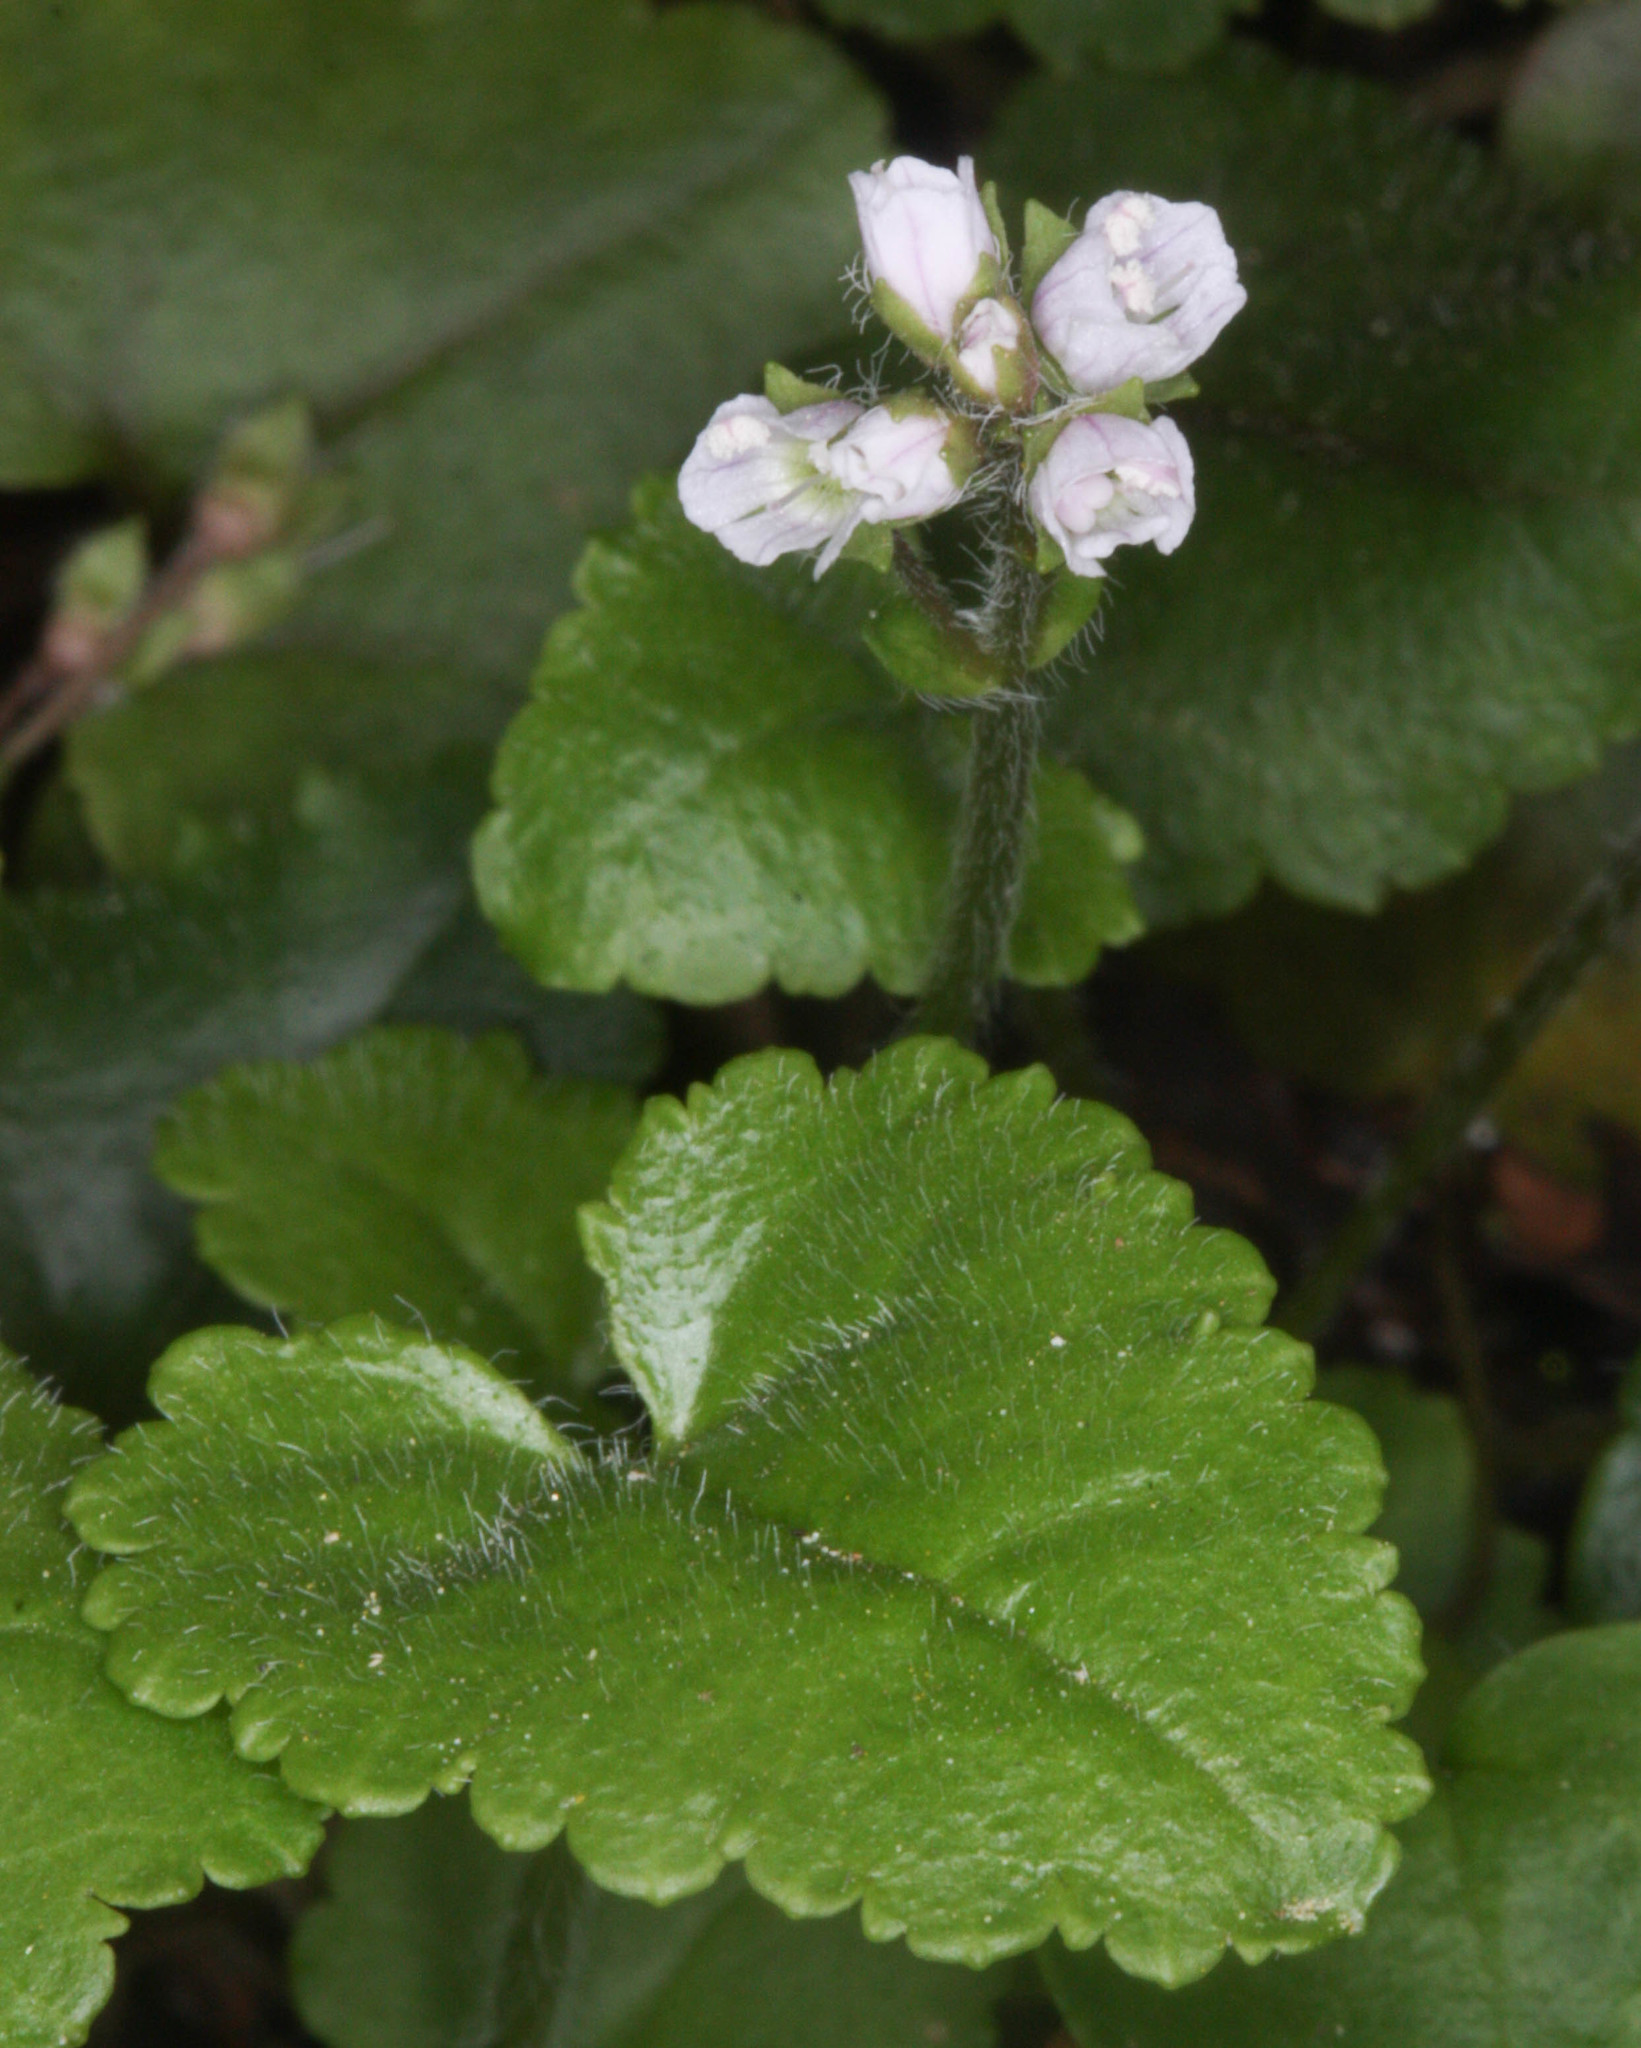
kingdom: Plantae
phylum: Tracheophyta
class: Magnoliopsida
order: Lamiales
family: Plantaginaceae
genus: Synthyris
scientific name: Synthyris cordata
